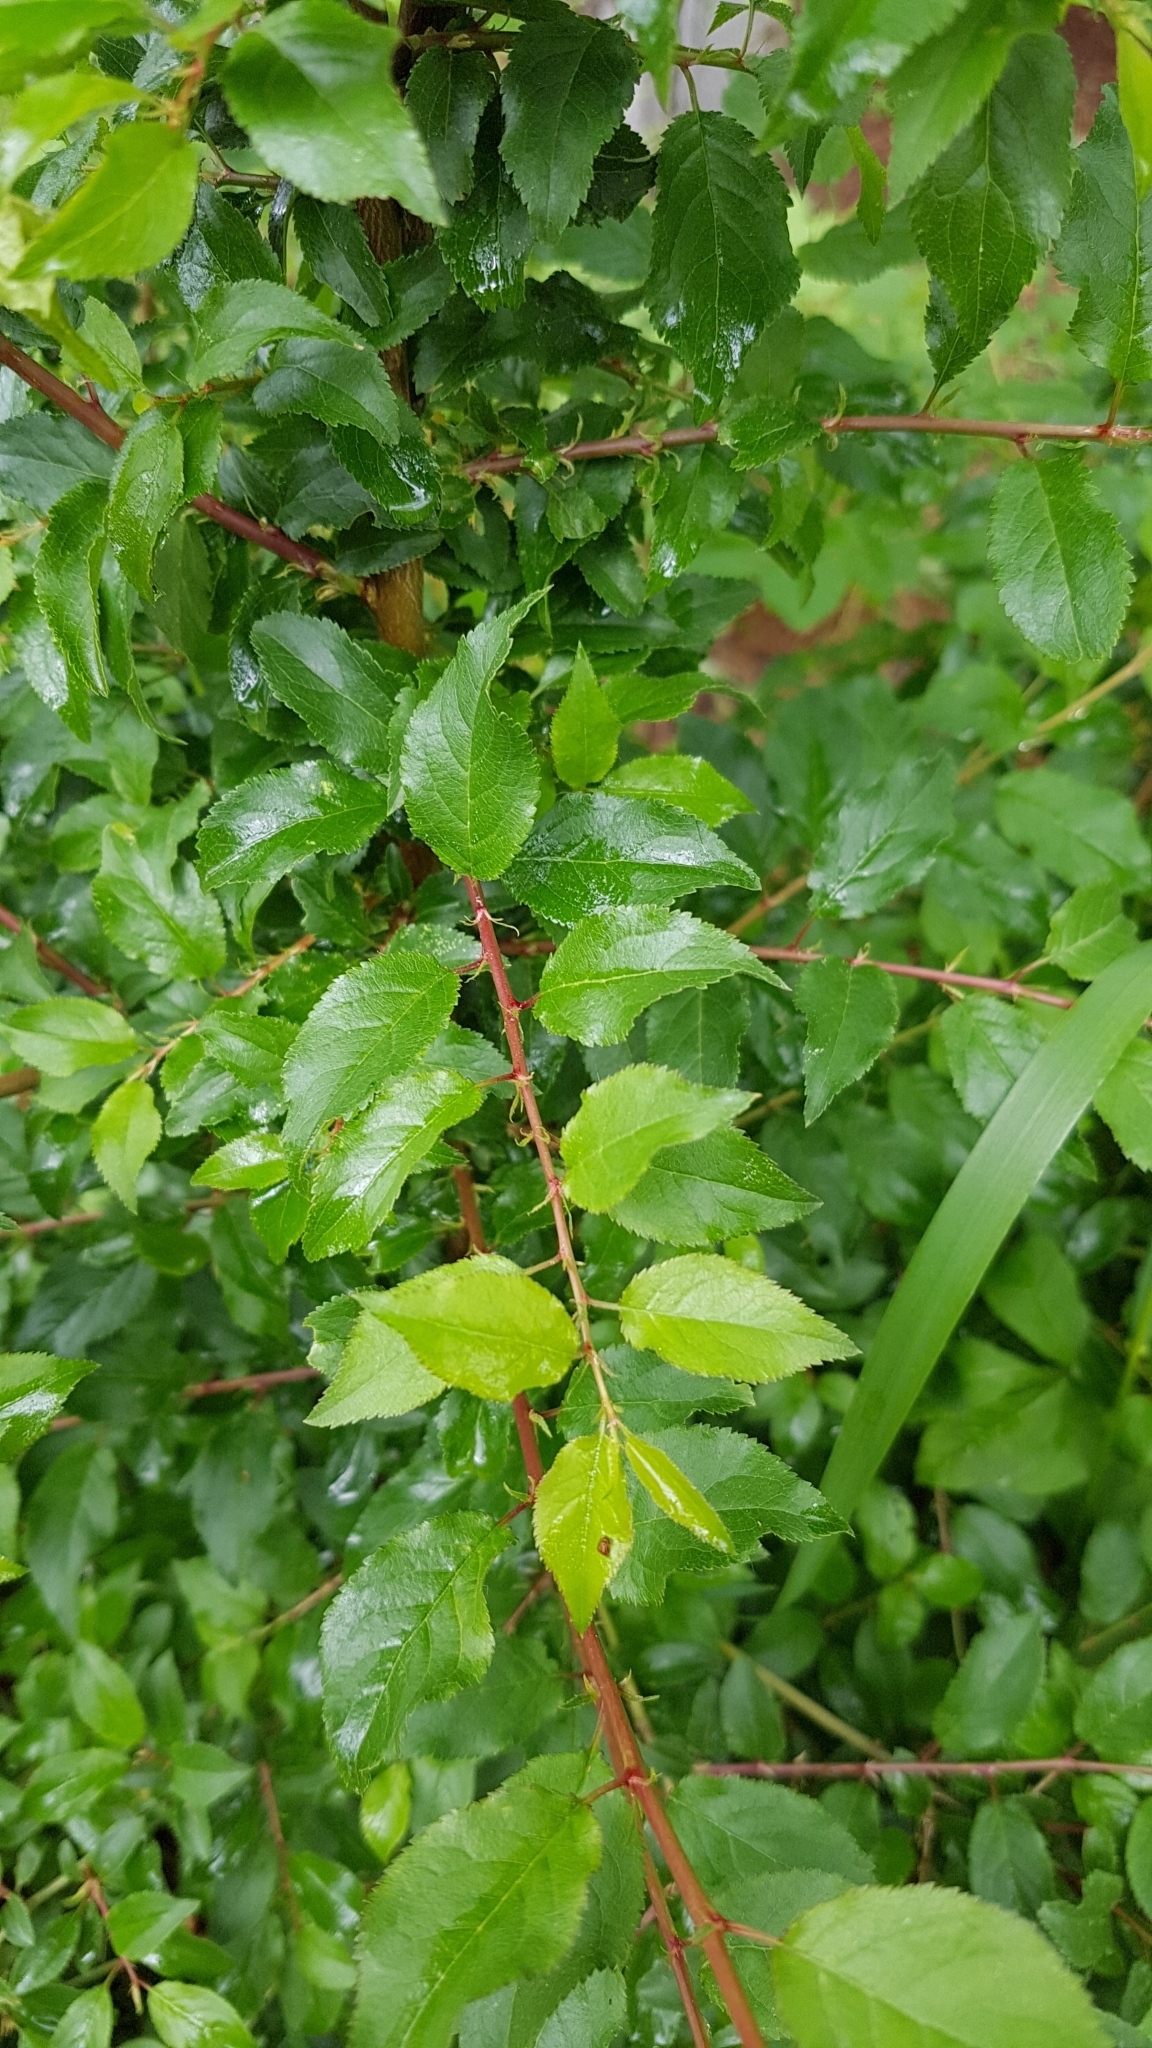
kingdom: Plantae
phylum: Tracheophyta
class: Magnoliopsida
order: Rosales
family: Rosaceae
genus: Prunus
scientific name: Prunus cerasifera
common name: Cherry plum
